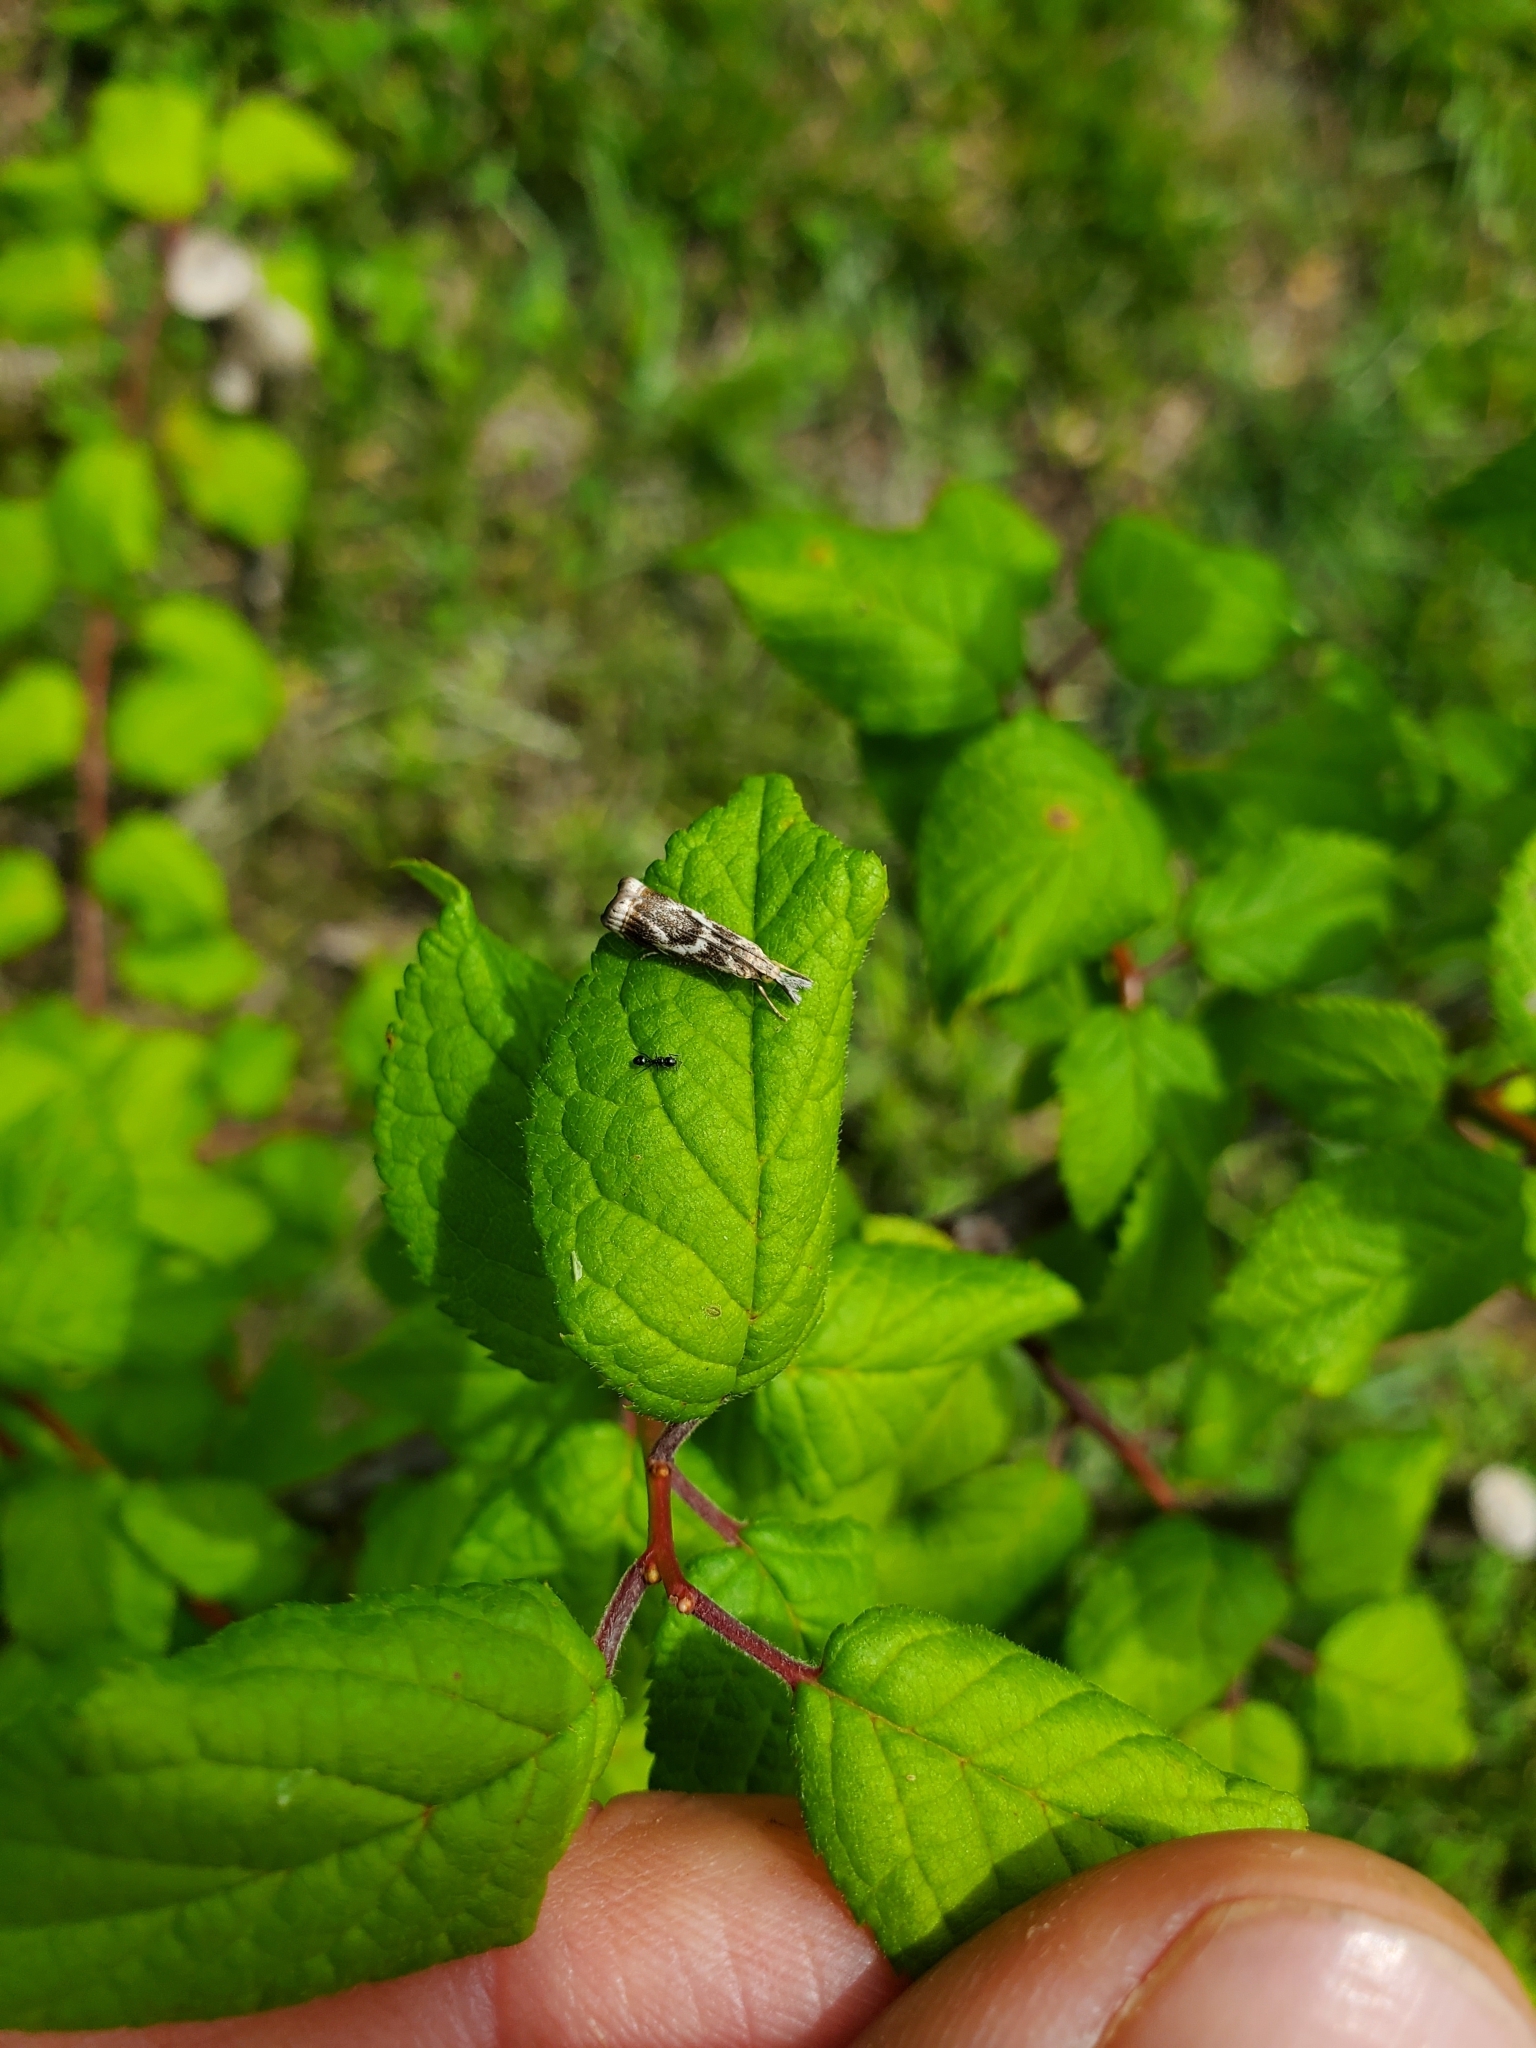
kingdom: Animalia
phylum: Arthropoda
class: Insecta
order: Lepidoptera
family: Crambidae
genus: Microcrambus
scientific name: Microcrambus elegans
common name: Elegant grass-veneer
